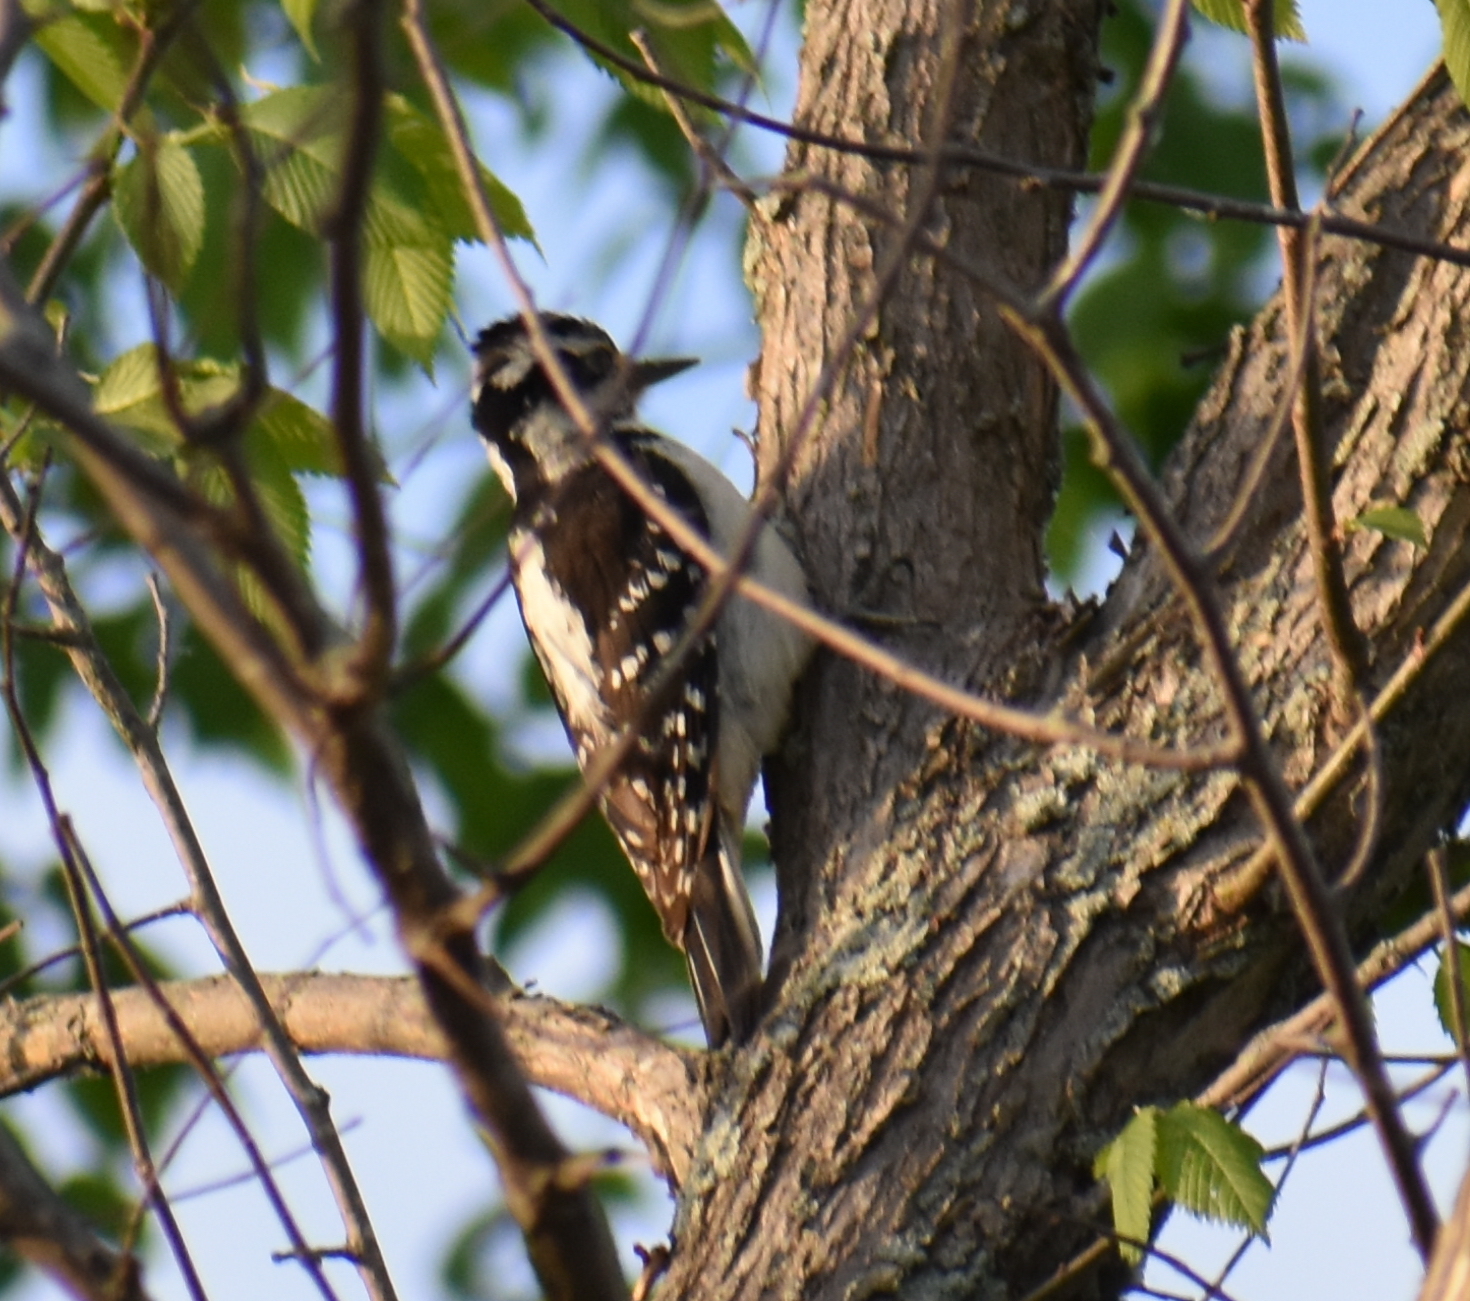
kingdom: Animalia
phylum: Chordata
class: Aves
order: Piciformes
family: Picidae
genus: Leuconotopicus
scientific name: Leuconotopicus villosus
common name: Hairy woodpecker
